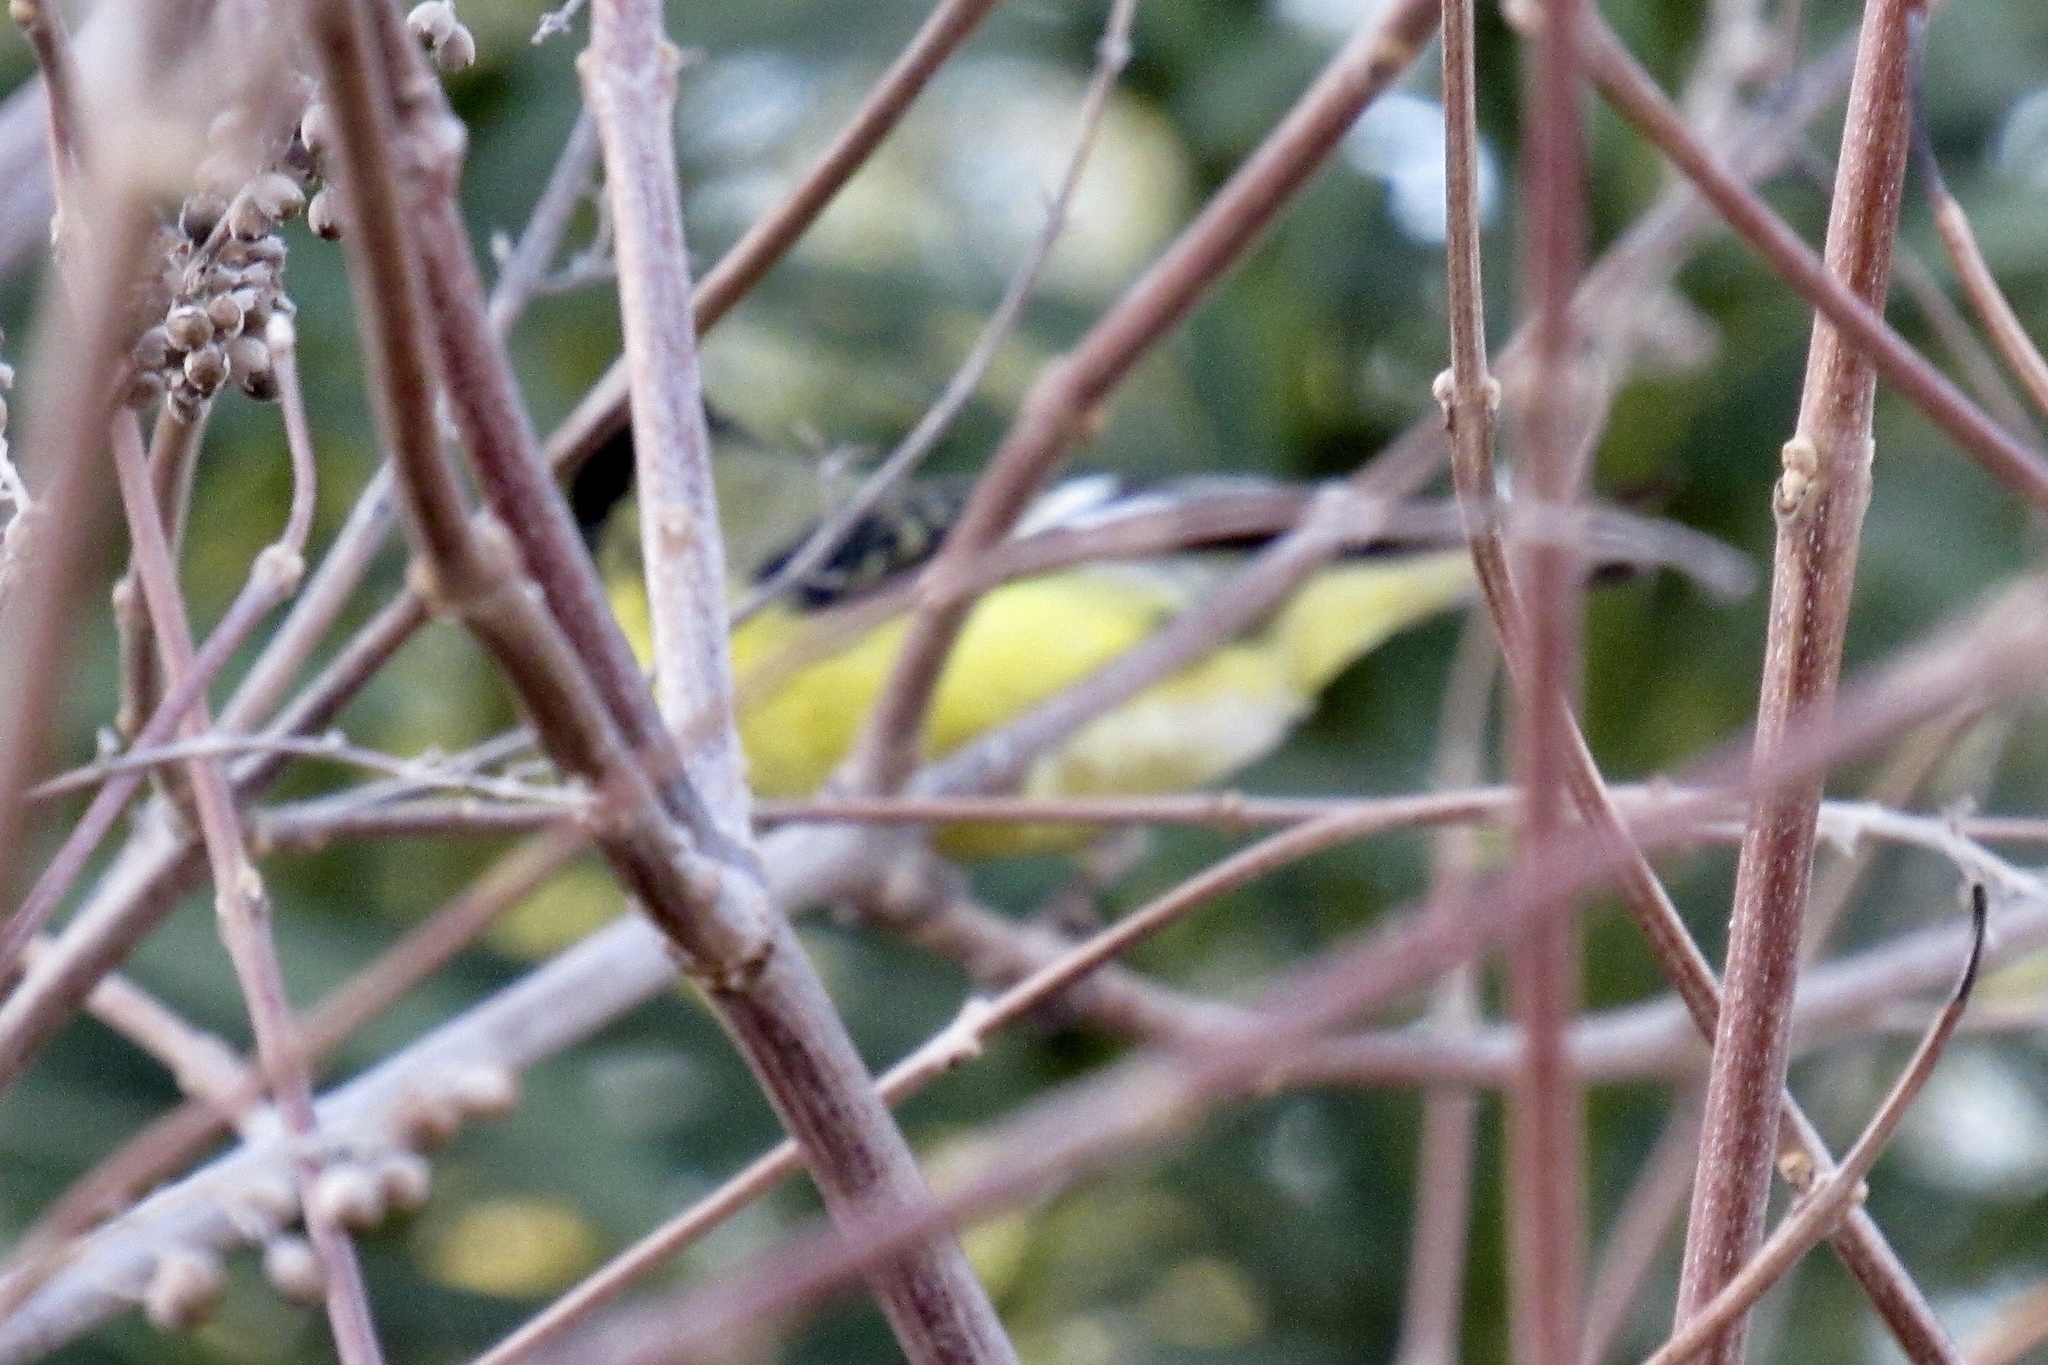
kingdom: Animalia
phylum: Chordata
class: Aves
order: Passeriformes
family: Fringillidae
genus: Spinus
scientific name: Spinus psaltria
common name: Lesser goldfinch
